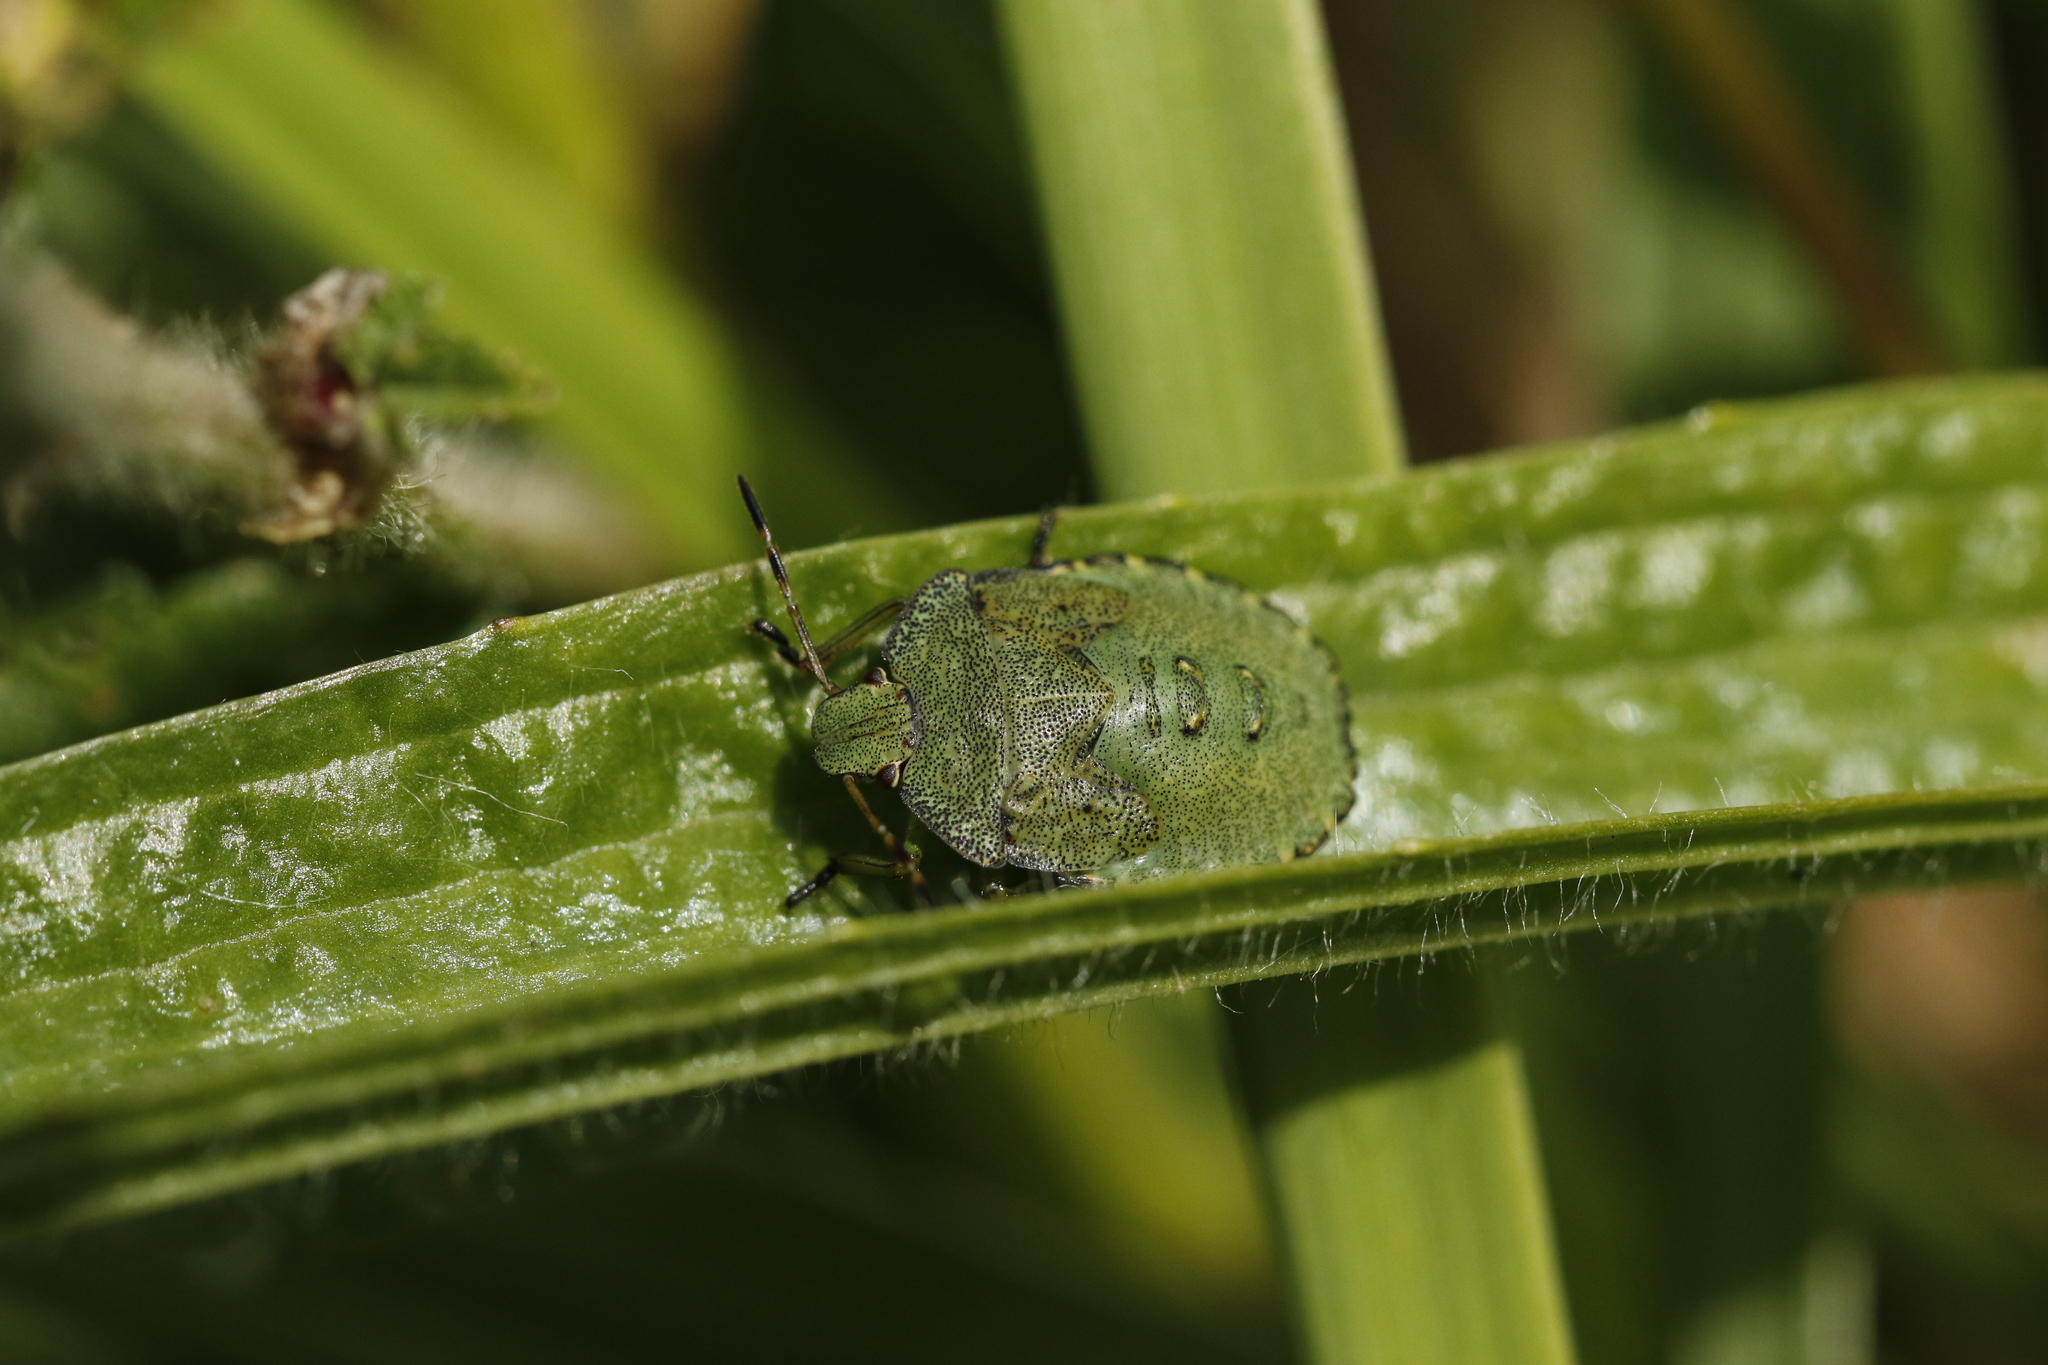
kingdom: Animalia
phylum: Arthropoda
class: Insecta
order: Hemiptera
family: Pentatomidae
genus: Palomena
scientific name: Palomena prasina
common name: Green shieldbug
